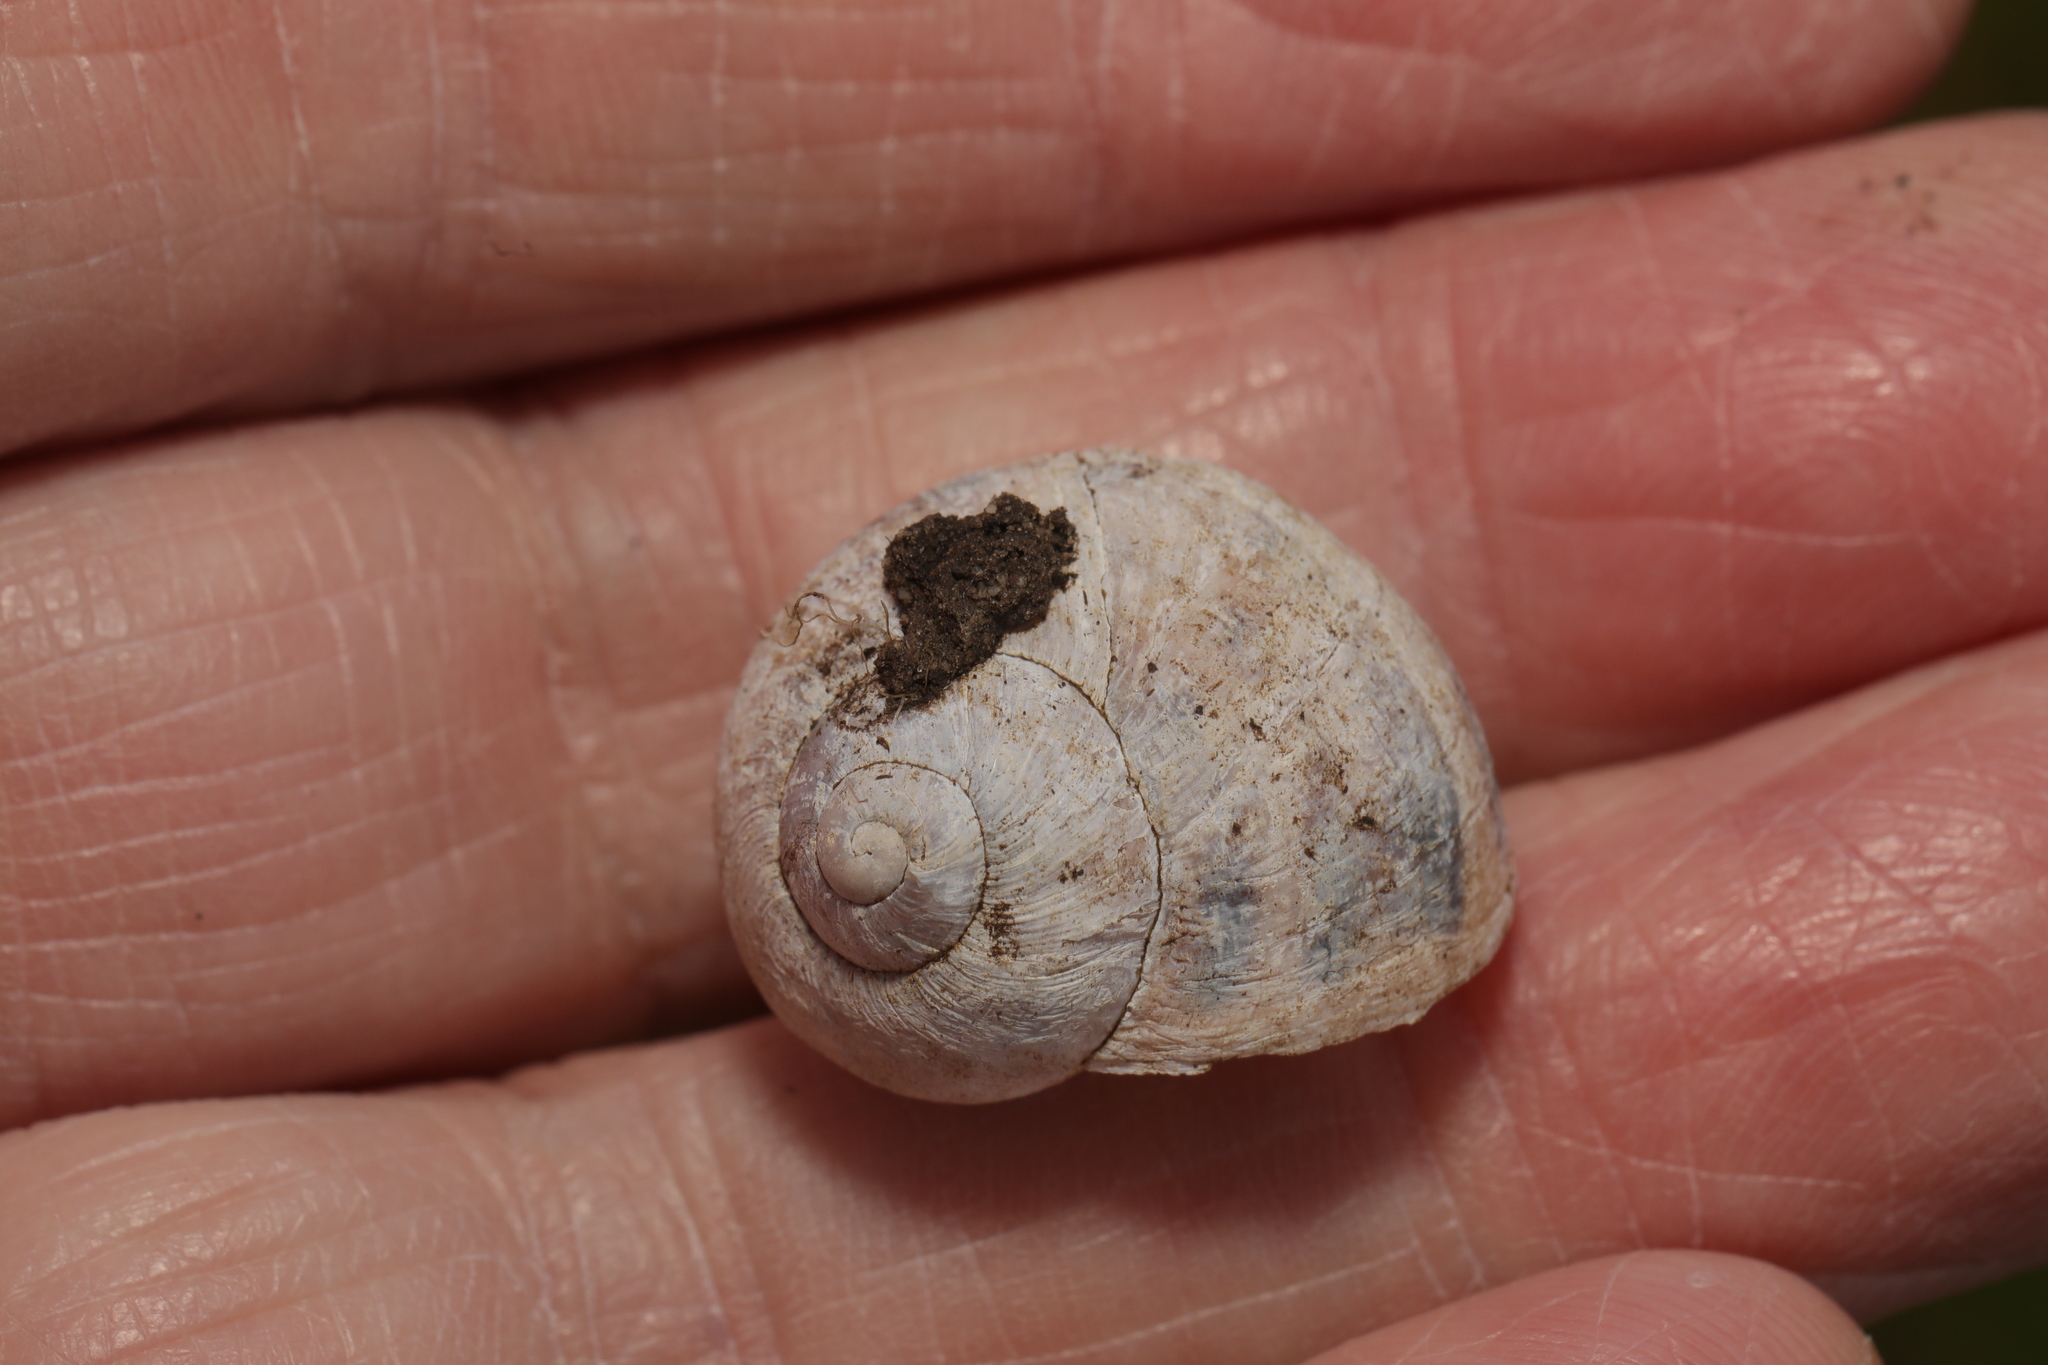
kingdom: Animalia
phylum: Mollusca
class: Gastropoda
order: Stylommatophora
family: Helicidae
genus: Cornu
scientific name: Cornu aspersum
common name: Brown garden snail
